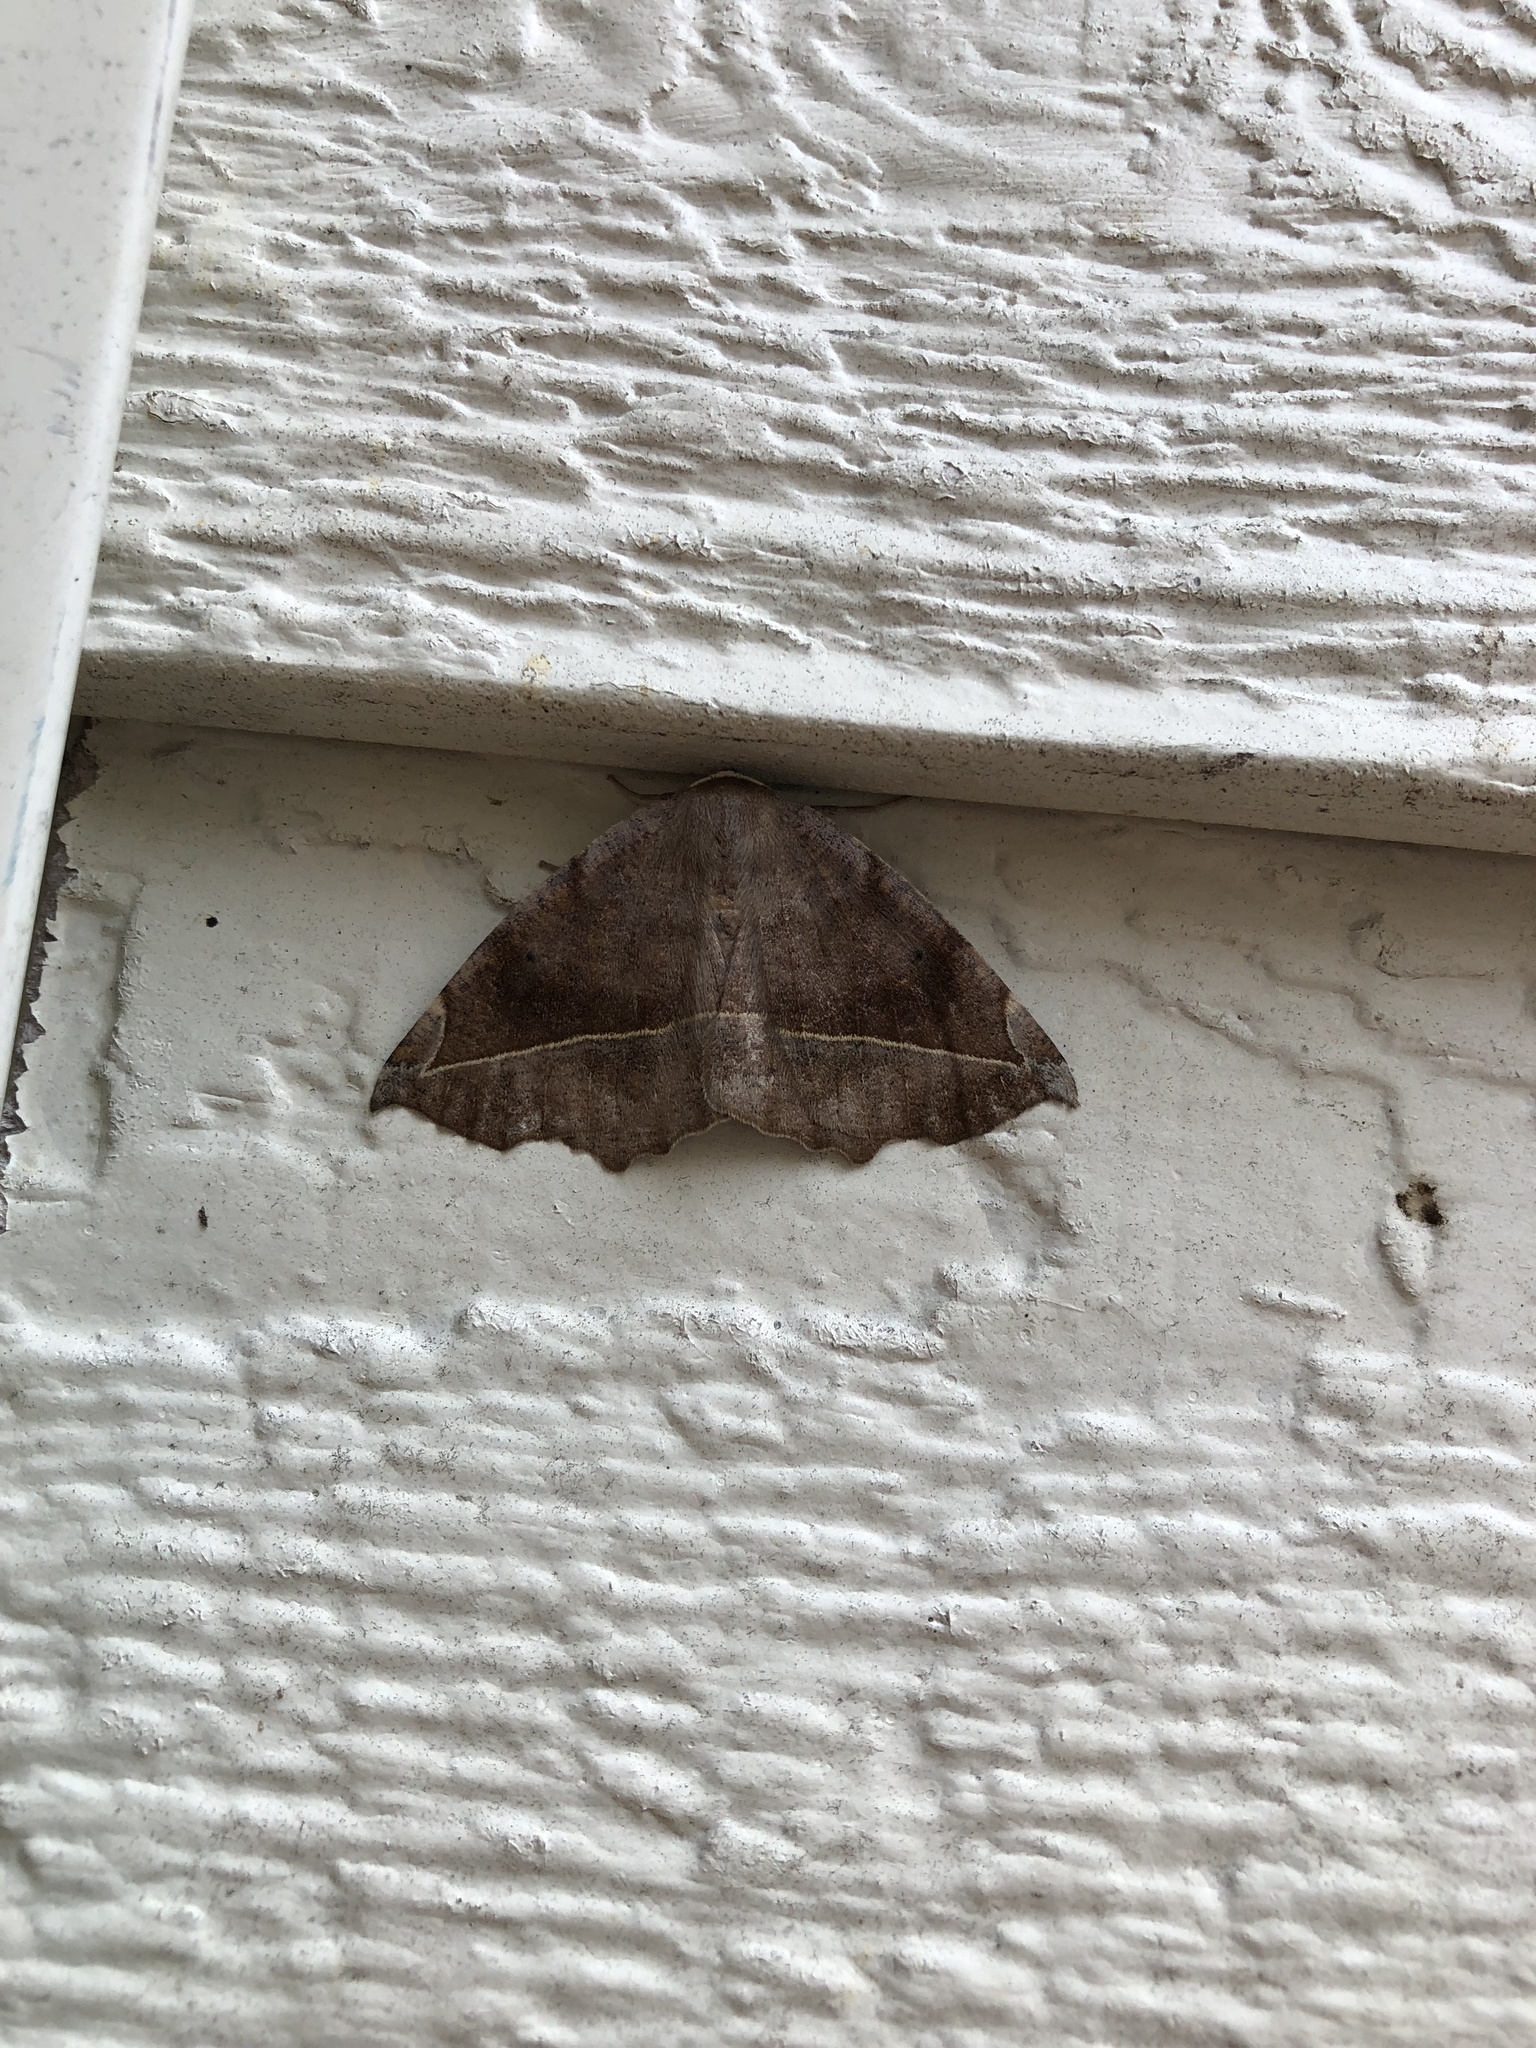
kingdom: Animalia
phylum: Arthropoda
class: Insecta
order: Lepidoptera
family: Geometridae
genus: Eutrapela
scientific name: Eutrapela clemataria
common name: Curved-toothed geometer
